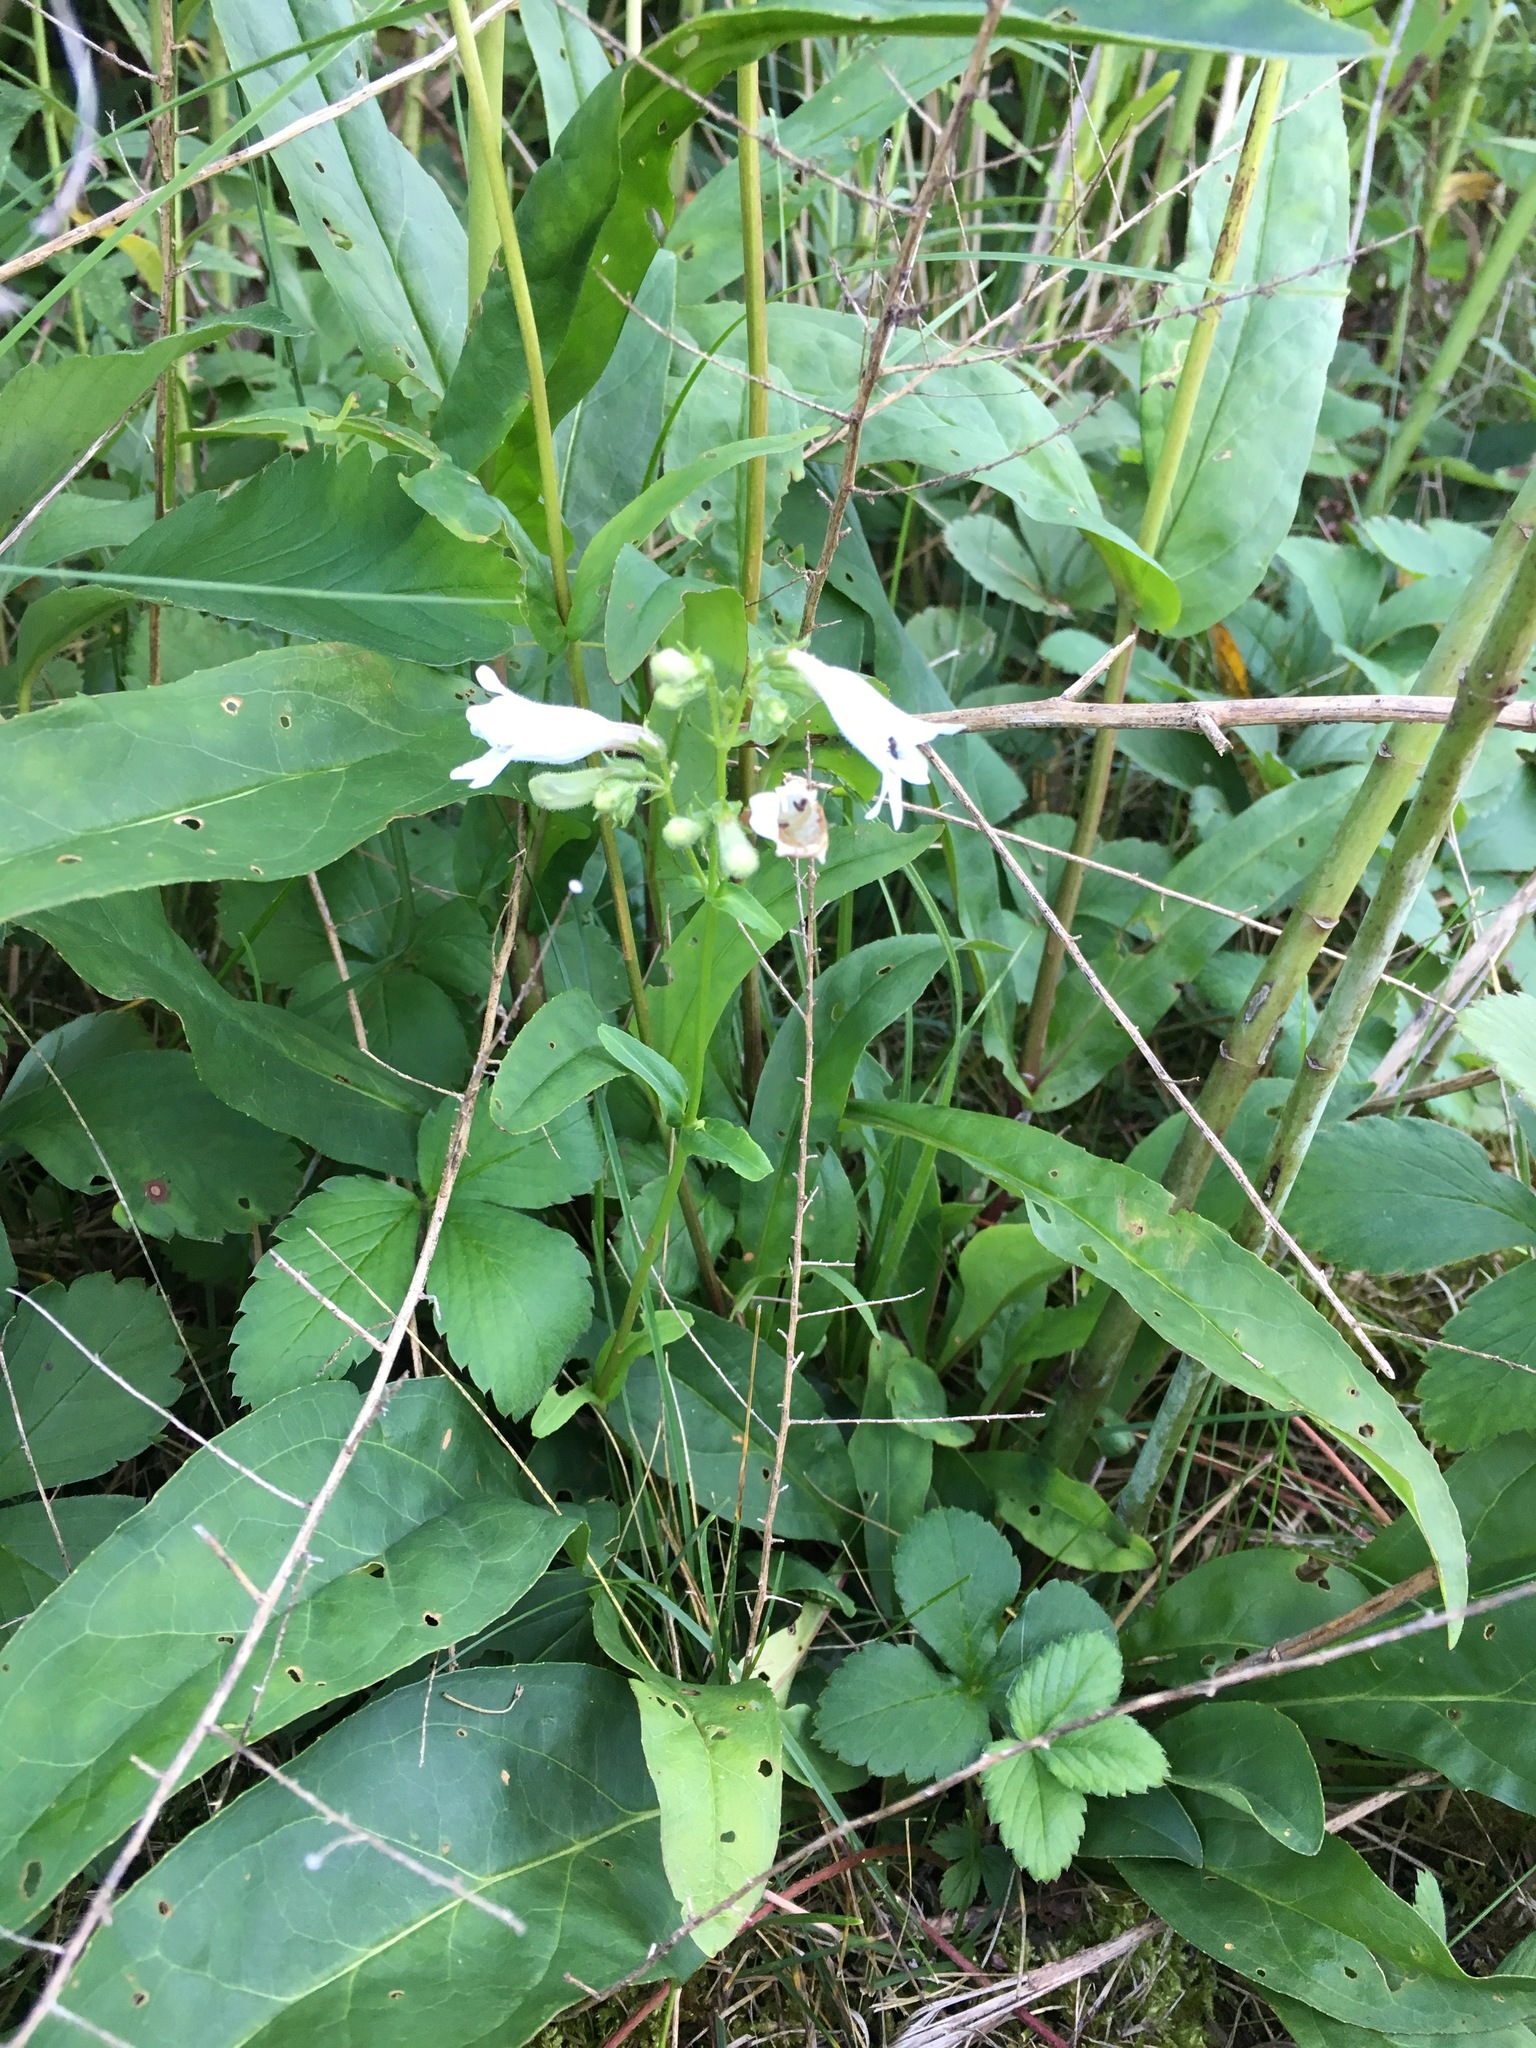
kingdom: Plantae
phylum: Tracheophyta
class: Magnoliopsida
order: Lamiales
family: Plantaginaceae
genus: Penstemon
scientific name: Penstemon digitalis
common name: Foxglove beardtongue
